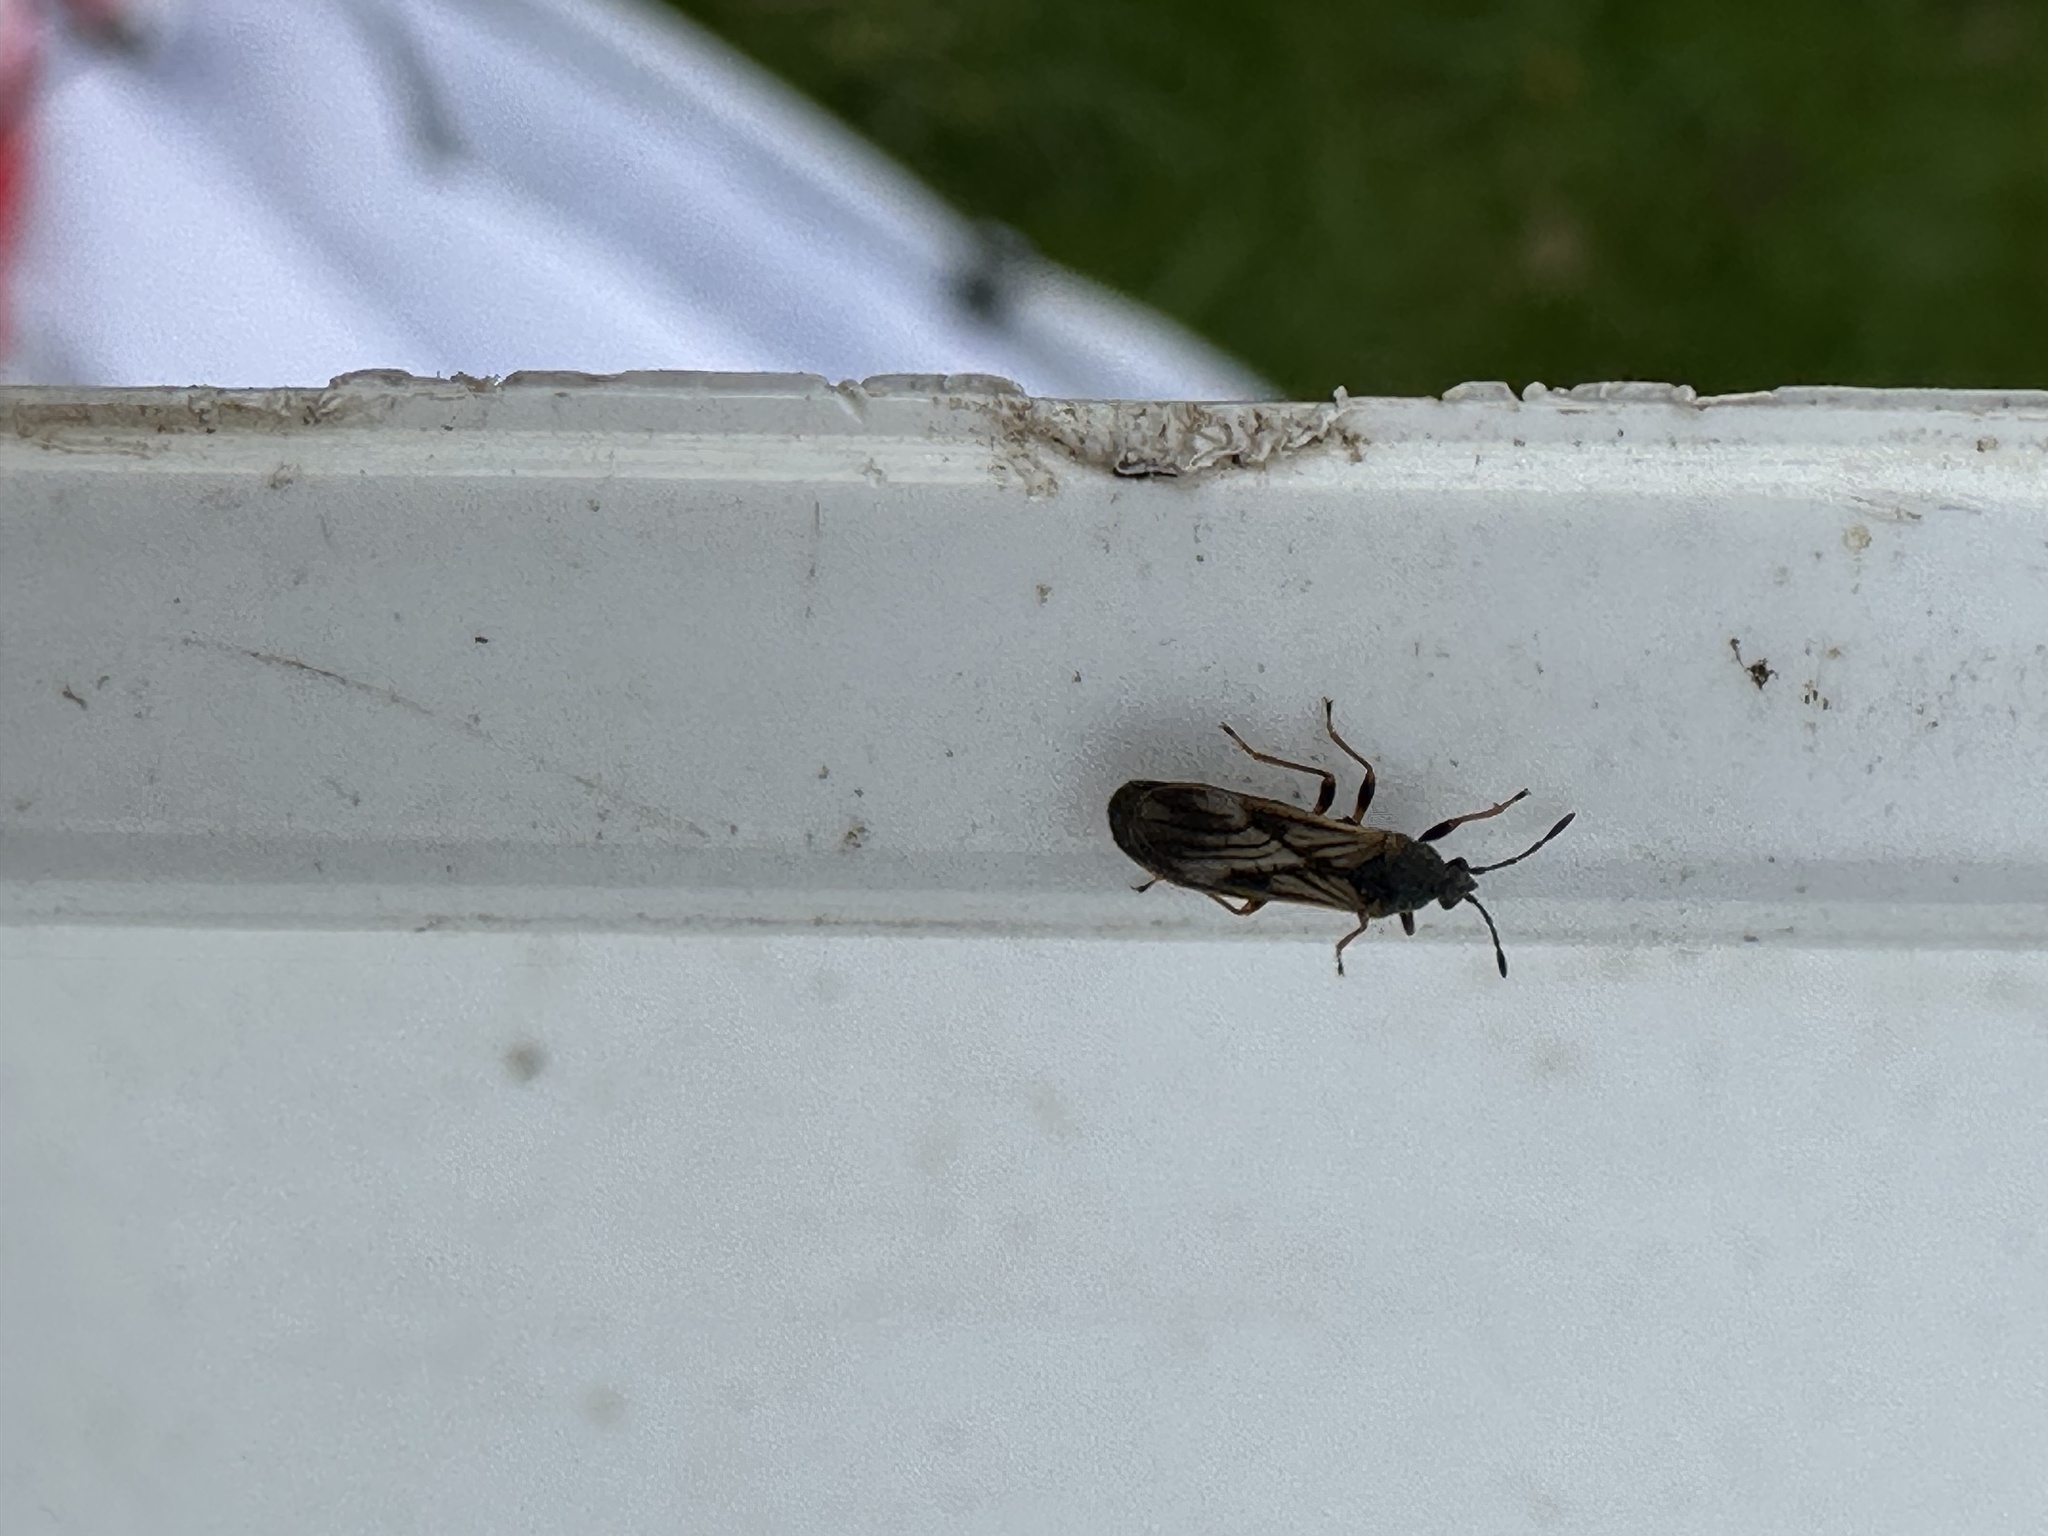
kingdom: Animalia
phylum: Arthropoda
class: Insecta
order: Hemiptera
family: Blissidae
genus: Ischnodemus
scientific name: Ischnodemus sabuleti
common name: European cinchbug
